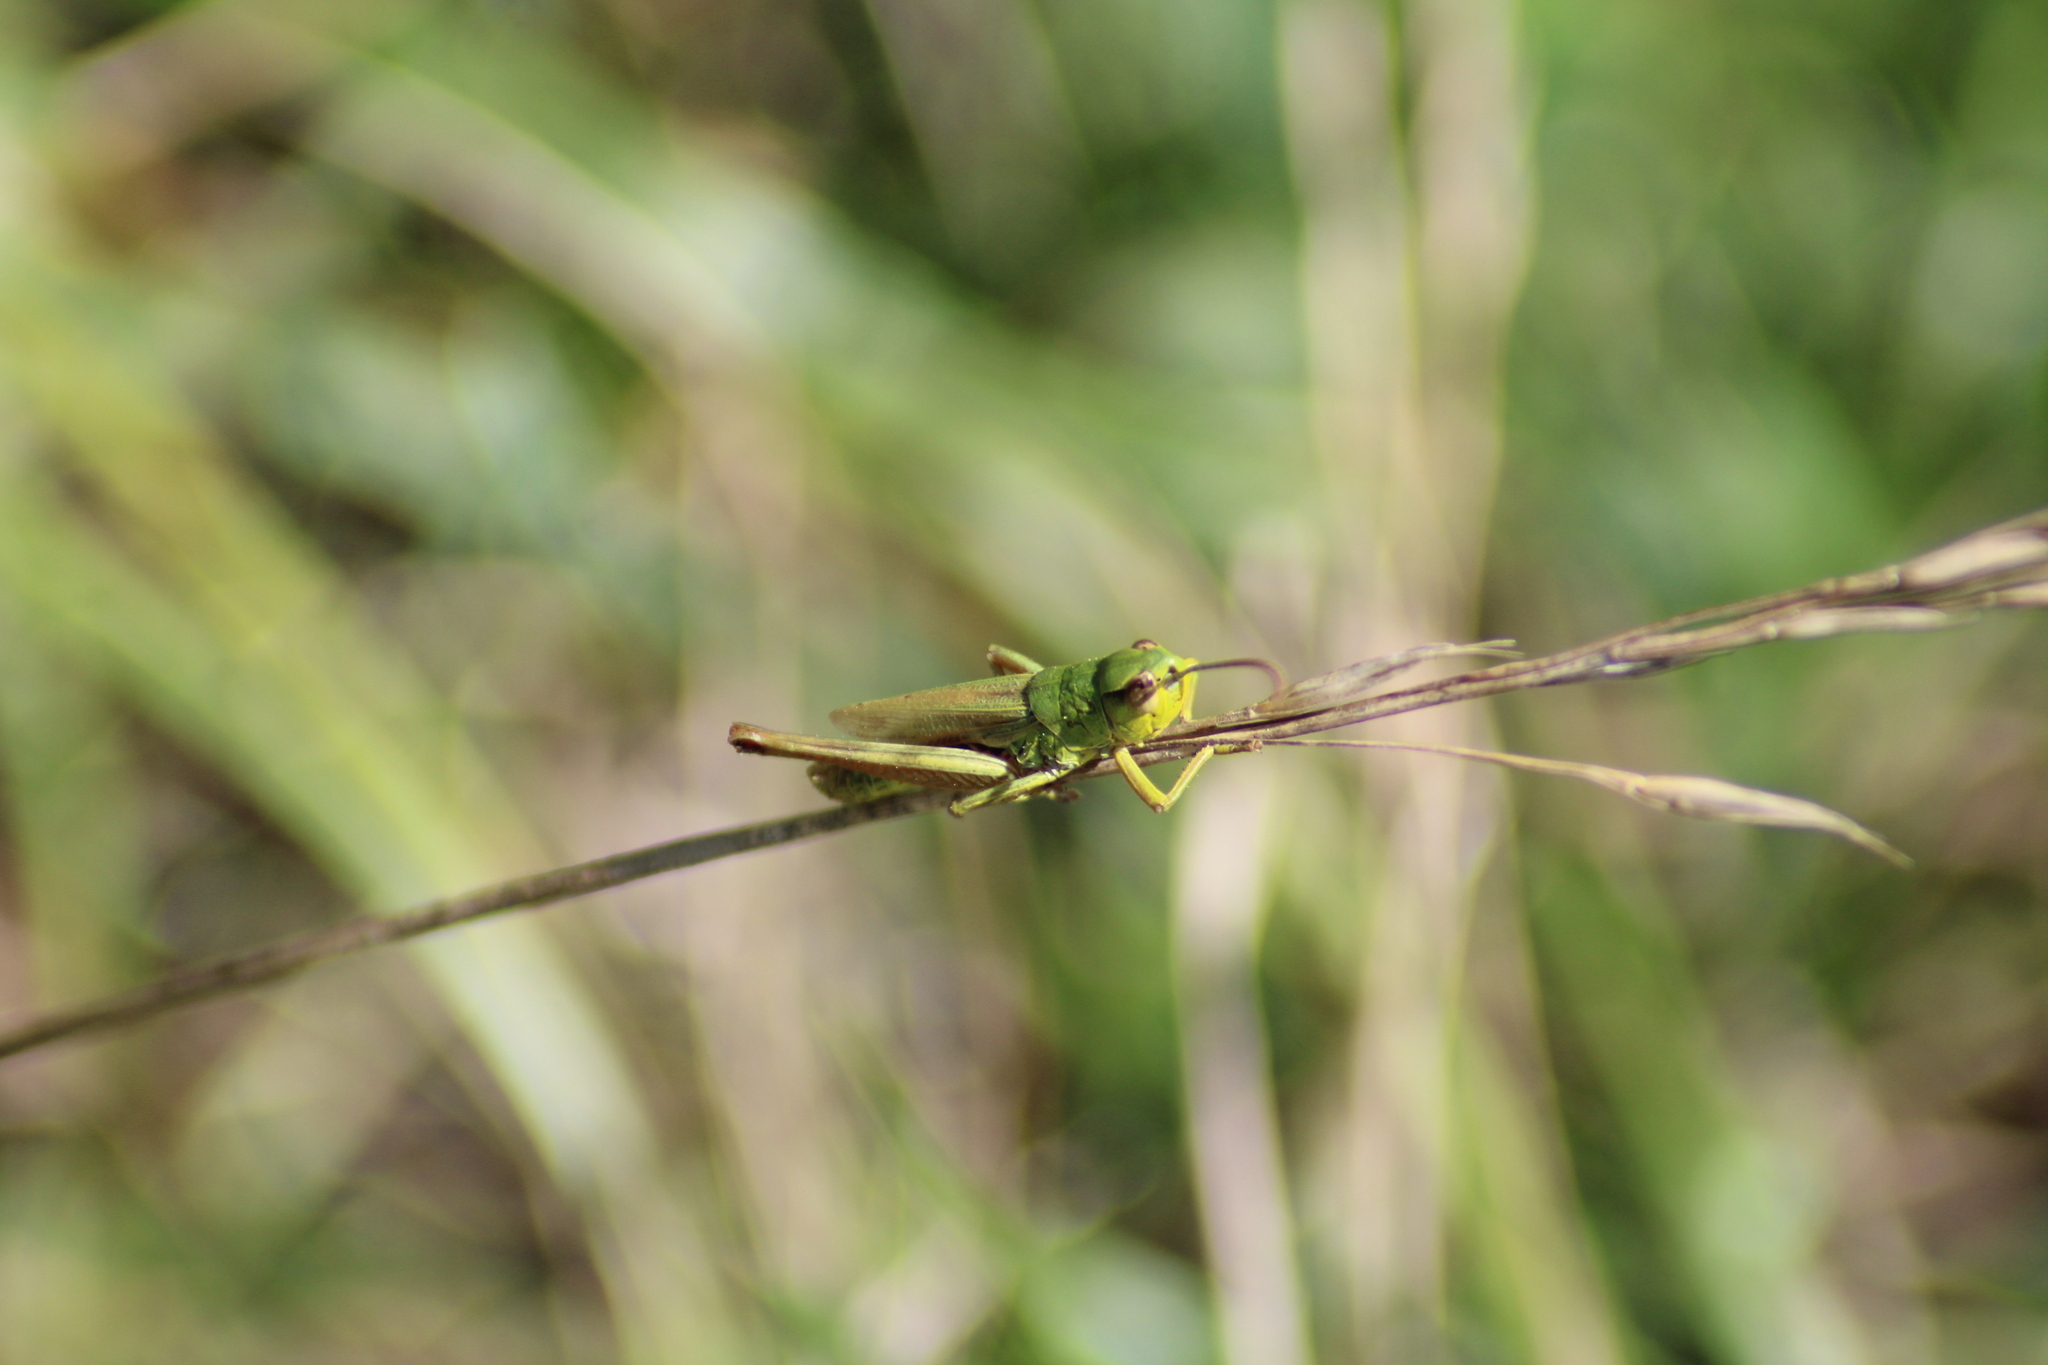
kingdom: Animalia
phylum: Arthropoda
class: Insecta
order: Orthoptera
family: Acrididae
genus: Pseudochorthippus
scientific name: Pseudochorthippus parallelus
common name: Meadow grasshopper
